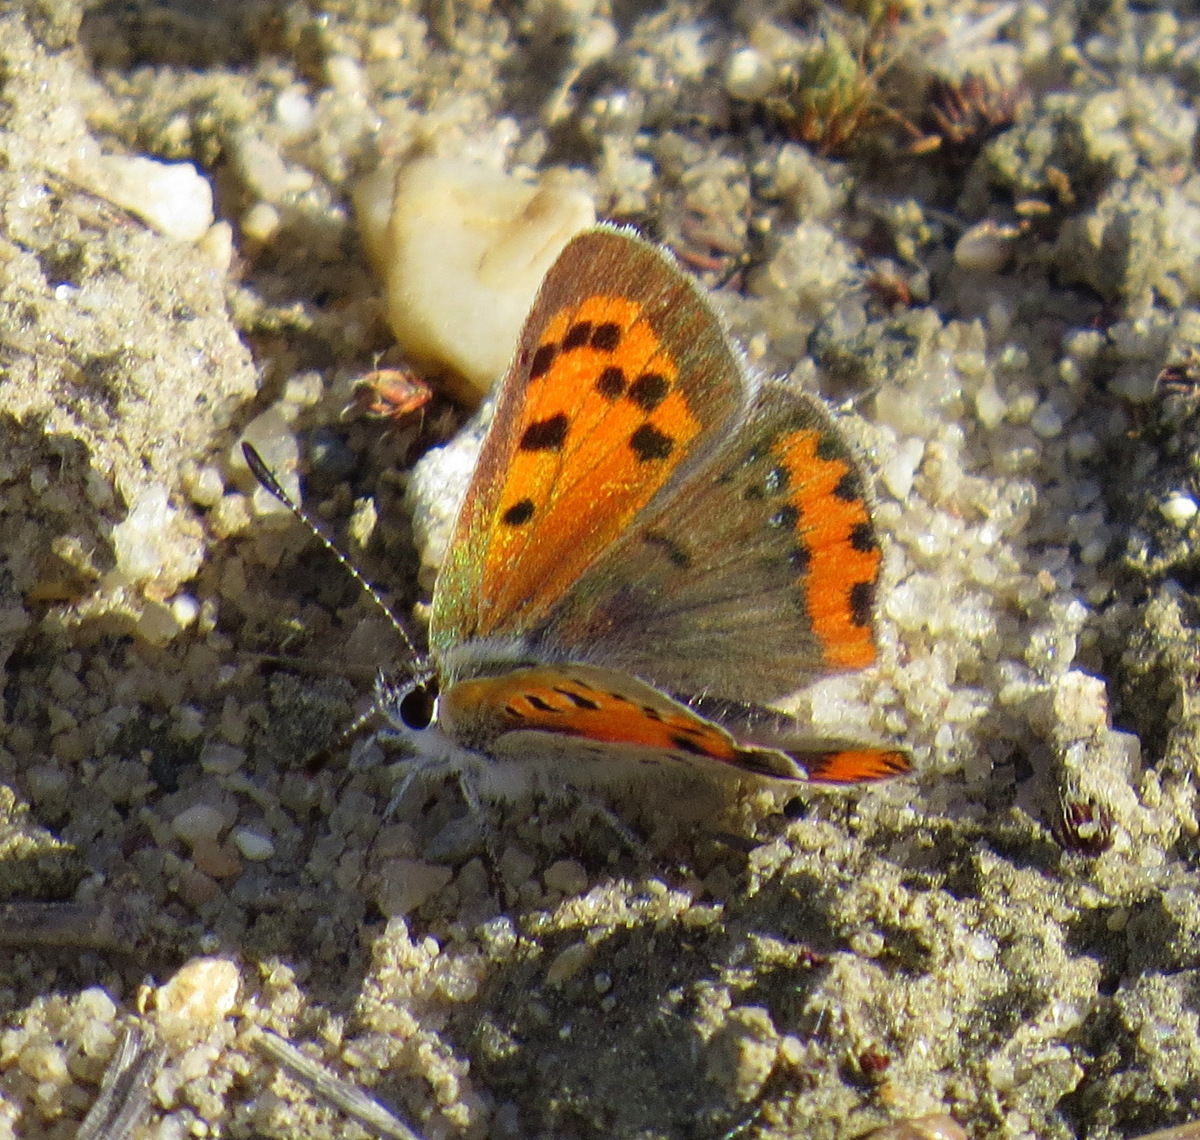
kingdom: Animalia
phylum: Arthropoda
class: Insecta
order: Lepidoptera
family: Lycaenidae
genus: Lycaena
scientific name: Lycaena hypophlaeas
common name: American copper
